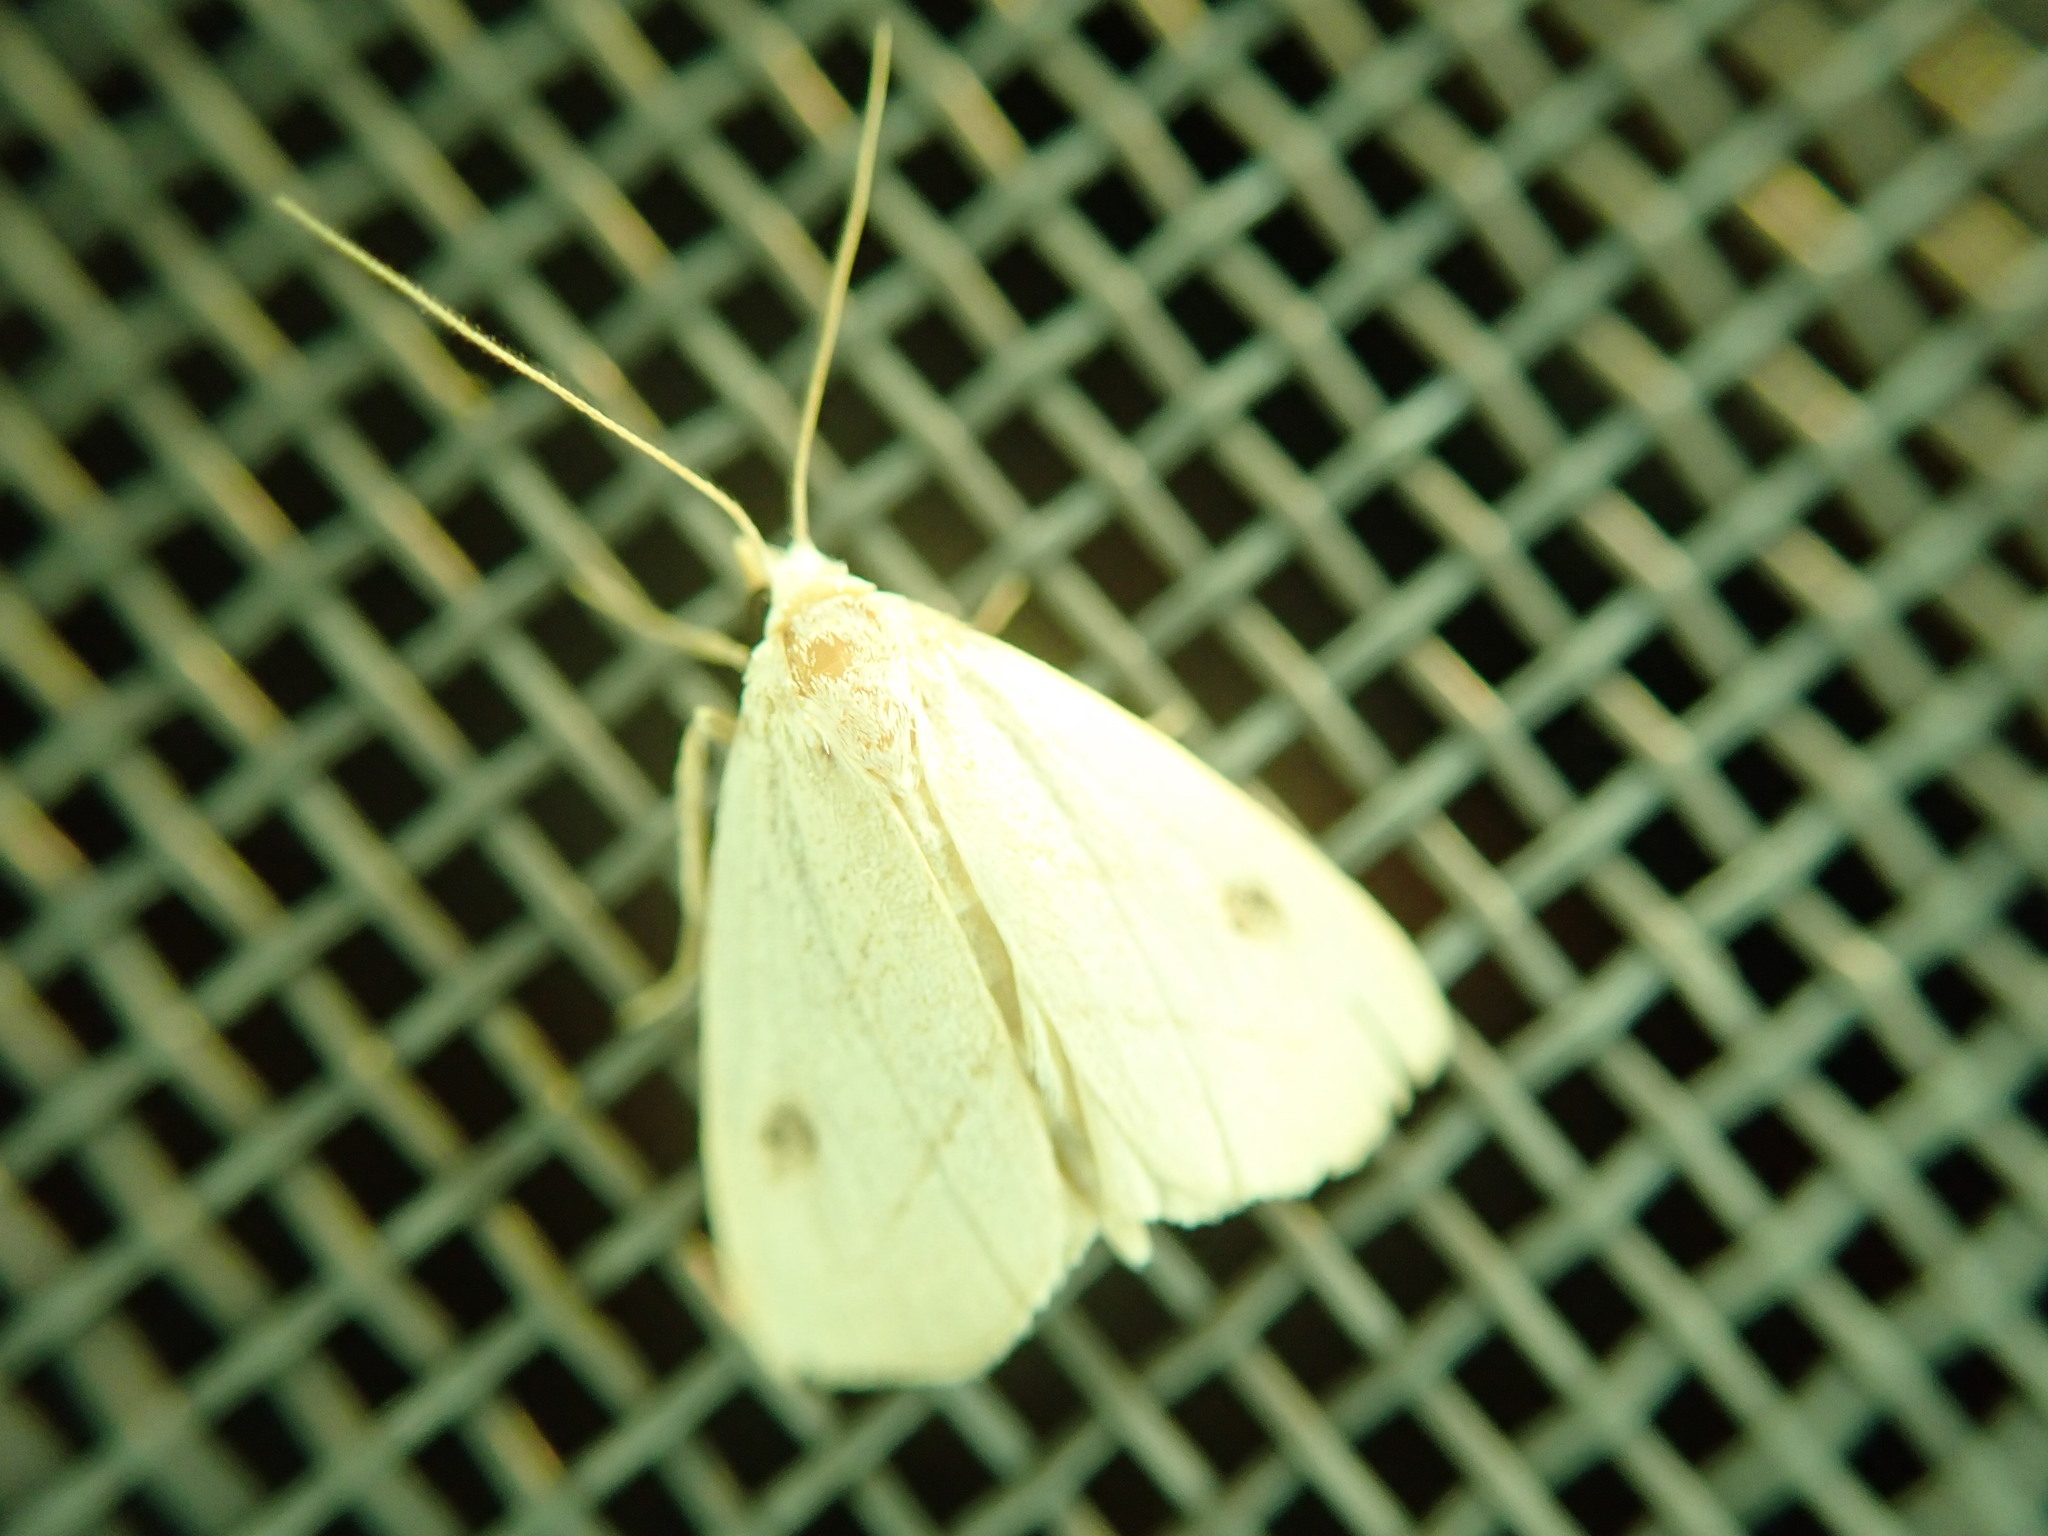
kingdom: Animalia
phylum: Arthropoda
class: Insecta
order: Lepidoptera
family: Erebidae
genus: Rivula
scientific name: Rivula propinqualis
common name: Spotted grass moth
